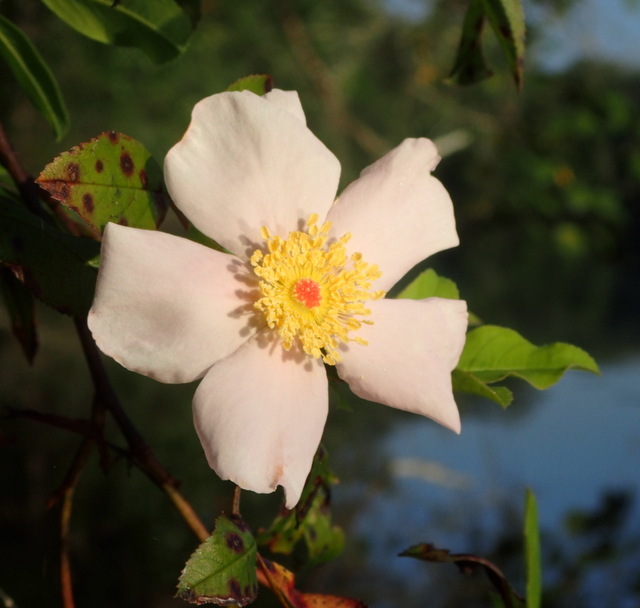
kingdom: Plantae
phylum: Tracheophyta
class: Magnoliopsida
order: Rosales
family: Rosaceae
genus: Rosa
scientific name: Rosa palustris
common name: Swamp rose
